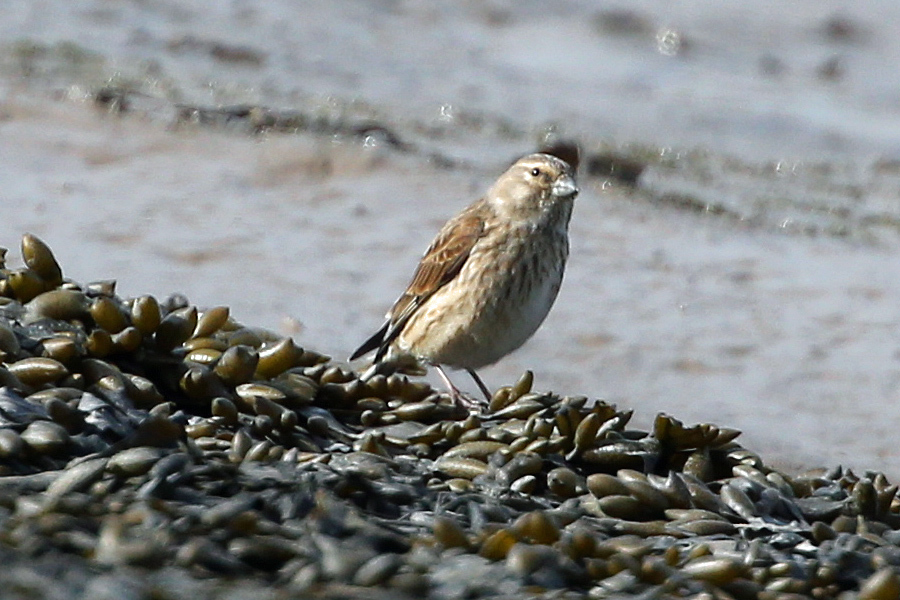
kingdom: Animalia
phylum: Chordata
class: Aves
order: Passeriformes
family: Fringillidae
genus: Linaria
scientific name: Linaria cannabina
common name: Common linnet
